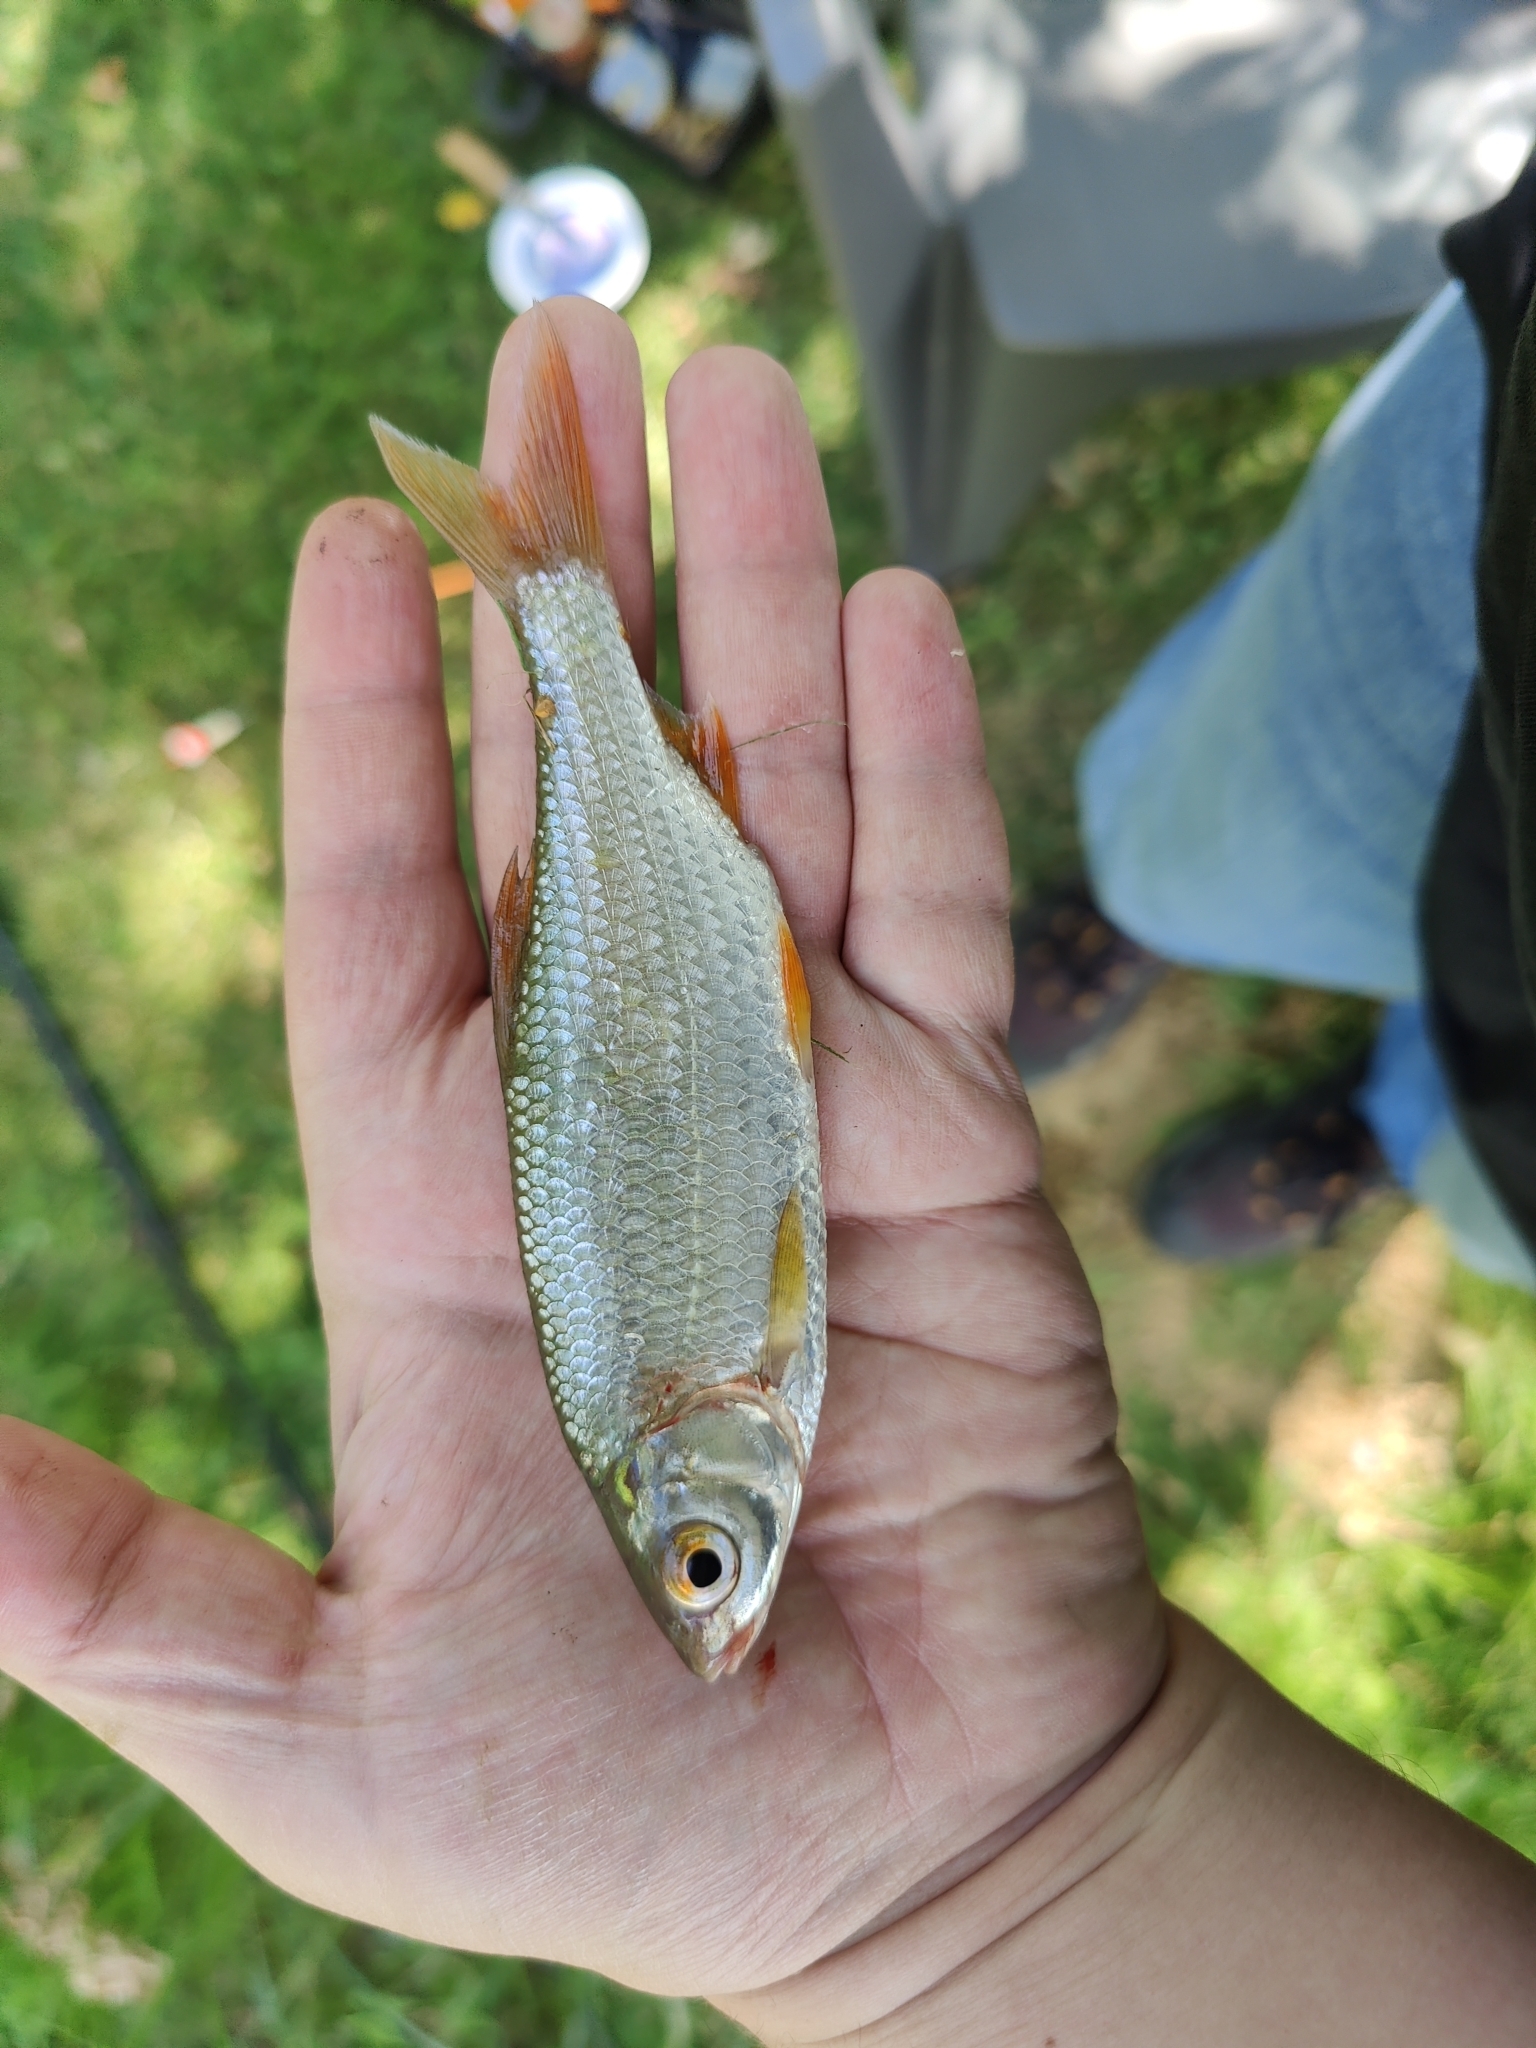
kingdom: Animalia
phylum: Chordata
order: Cypriniformes
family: Cyprinidae
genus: Rutilus
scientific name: Rutilus rutilus
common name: Roach
